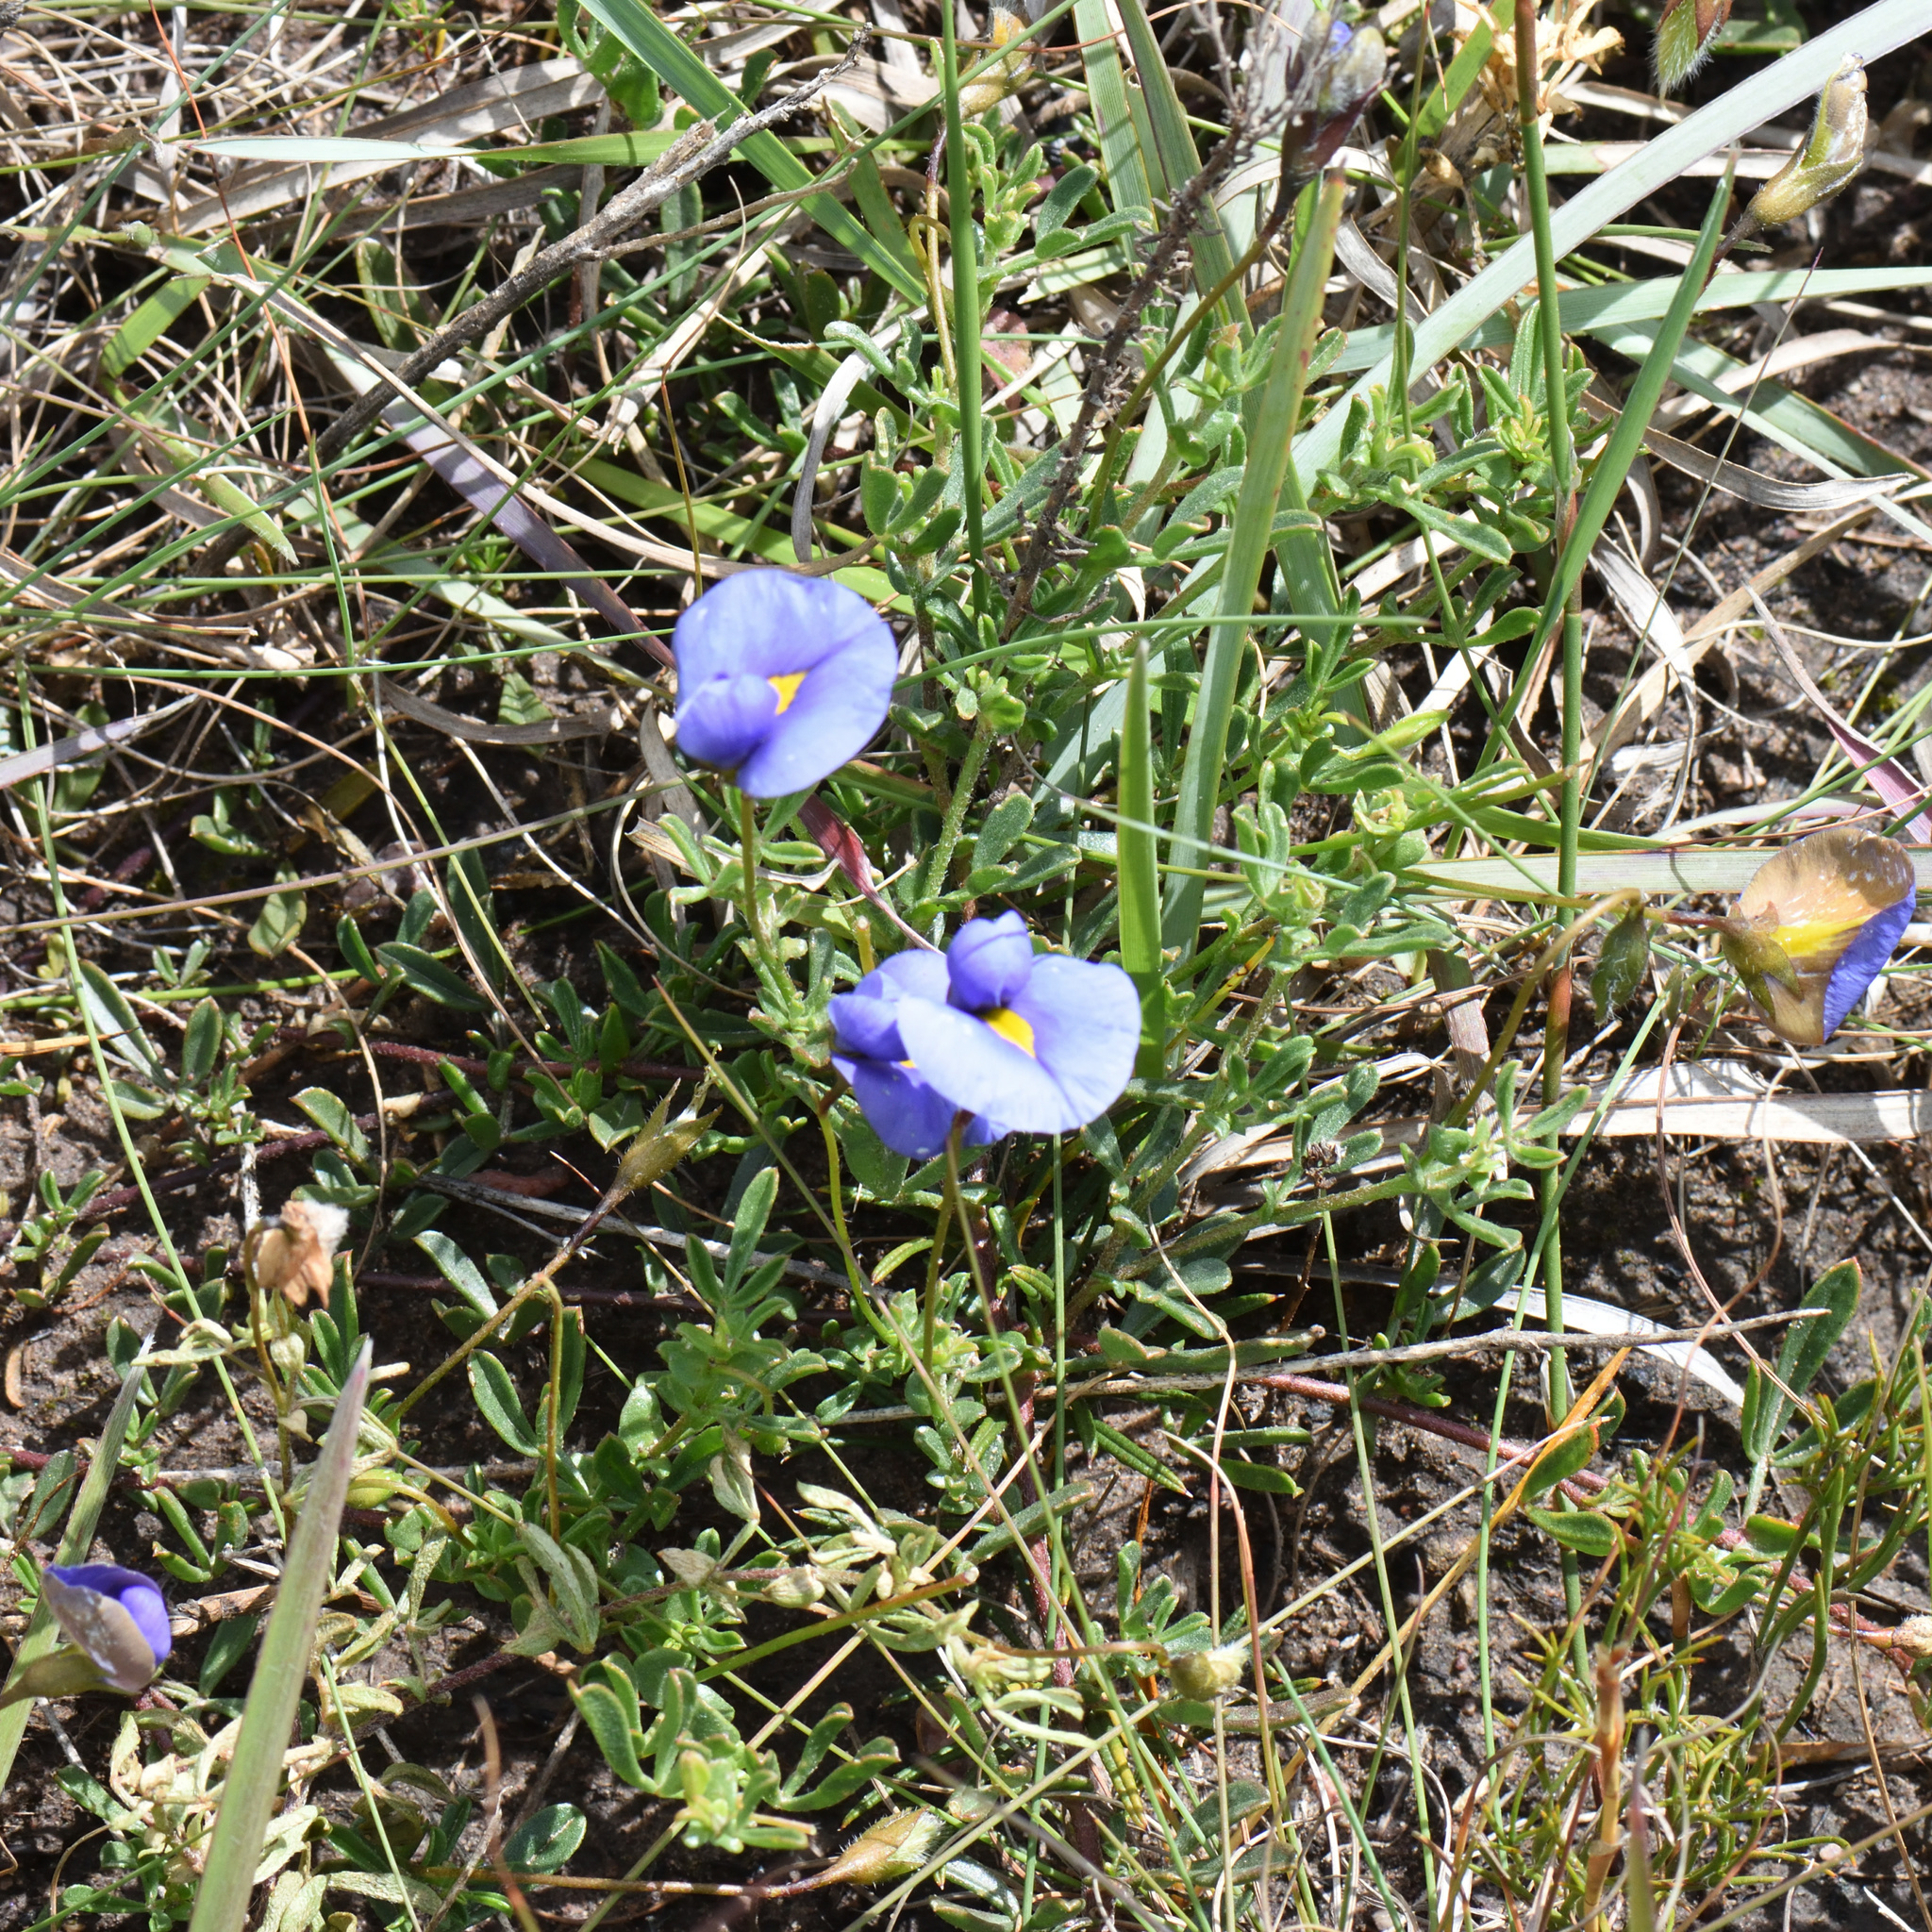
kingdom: Plantae
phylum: Tracheophyta
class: Magnoliopsida
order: Fabales
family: Fabaceae
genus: Lotononis
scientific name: Lotononis azurea
